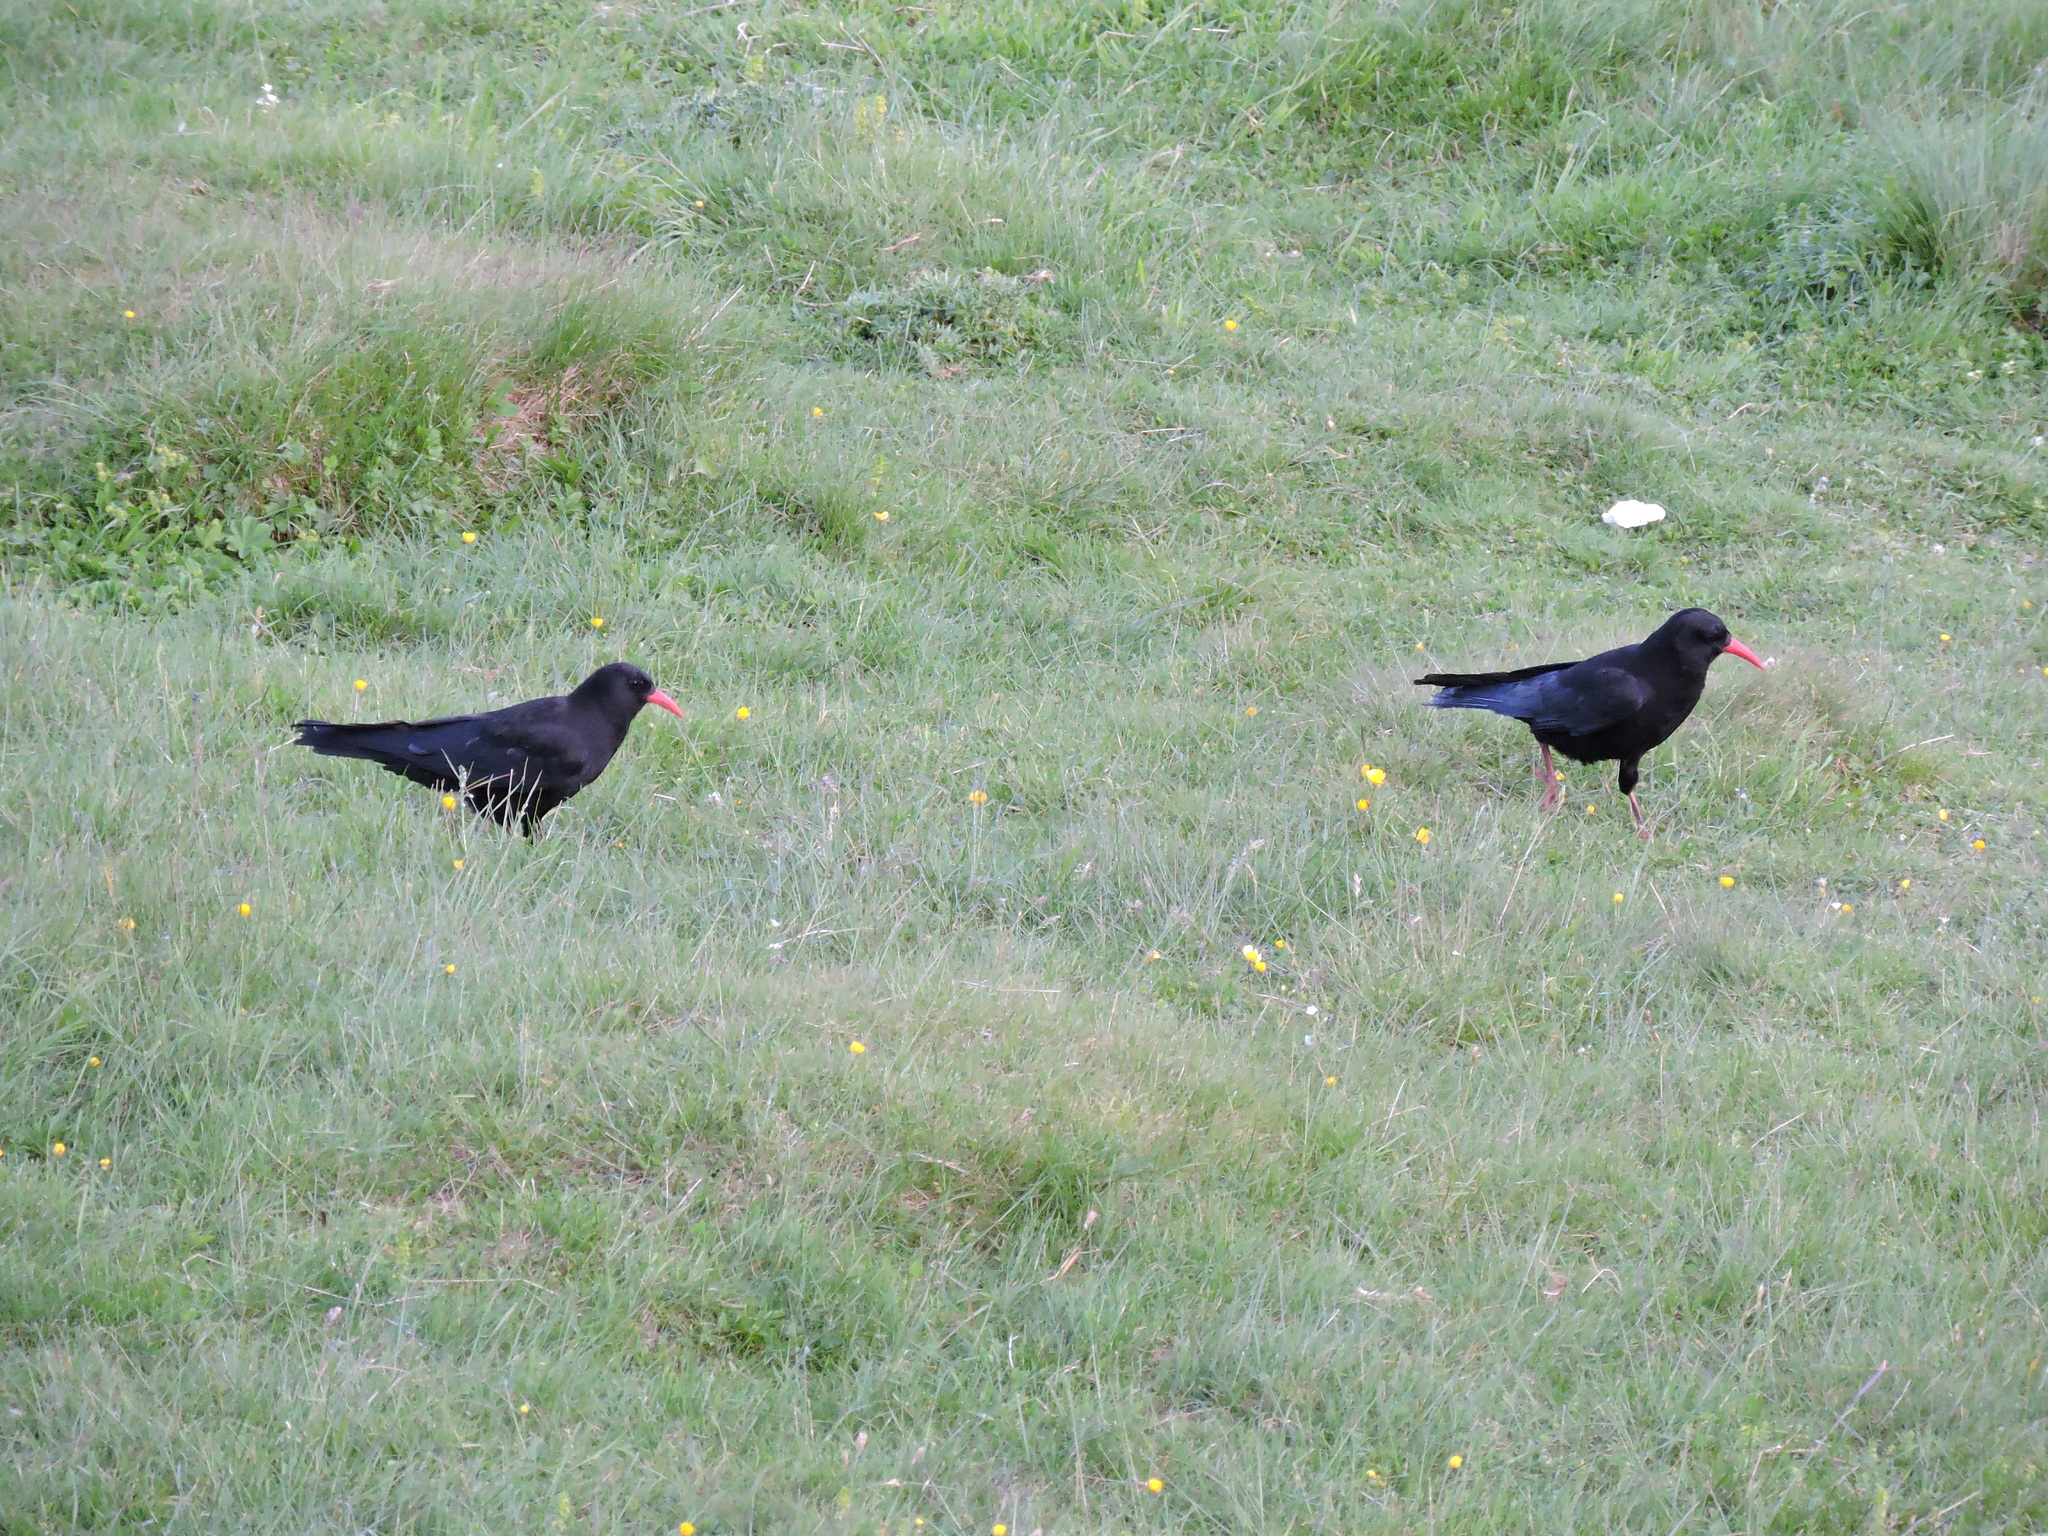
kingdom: Animalia
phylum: Chordata
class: Aves
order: Passeriformes
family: Corvidae
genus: Pyrrhocorax
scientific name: Pyrrhocorax pyrrhocorax
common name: Red-billed chough
